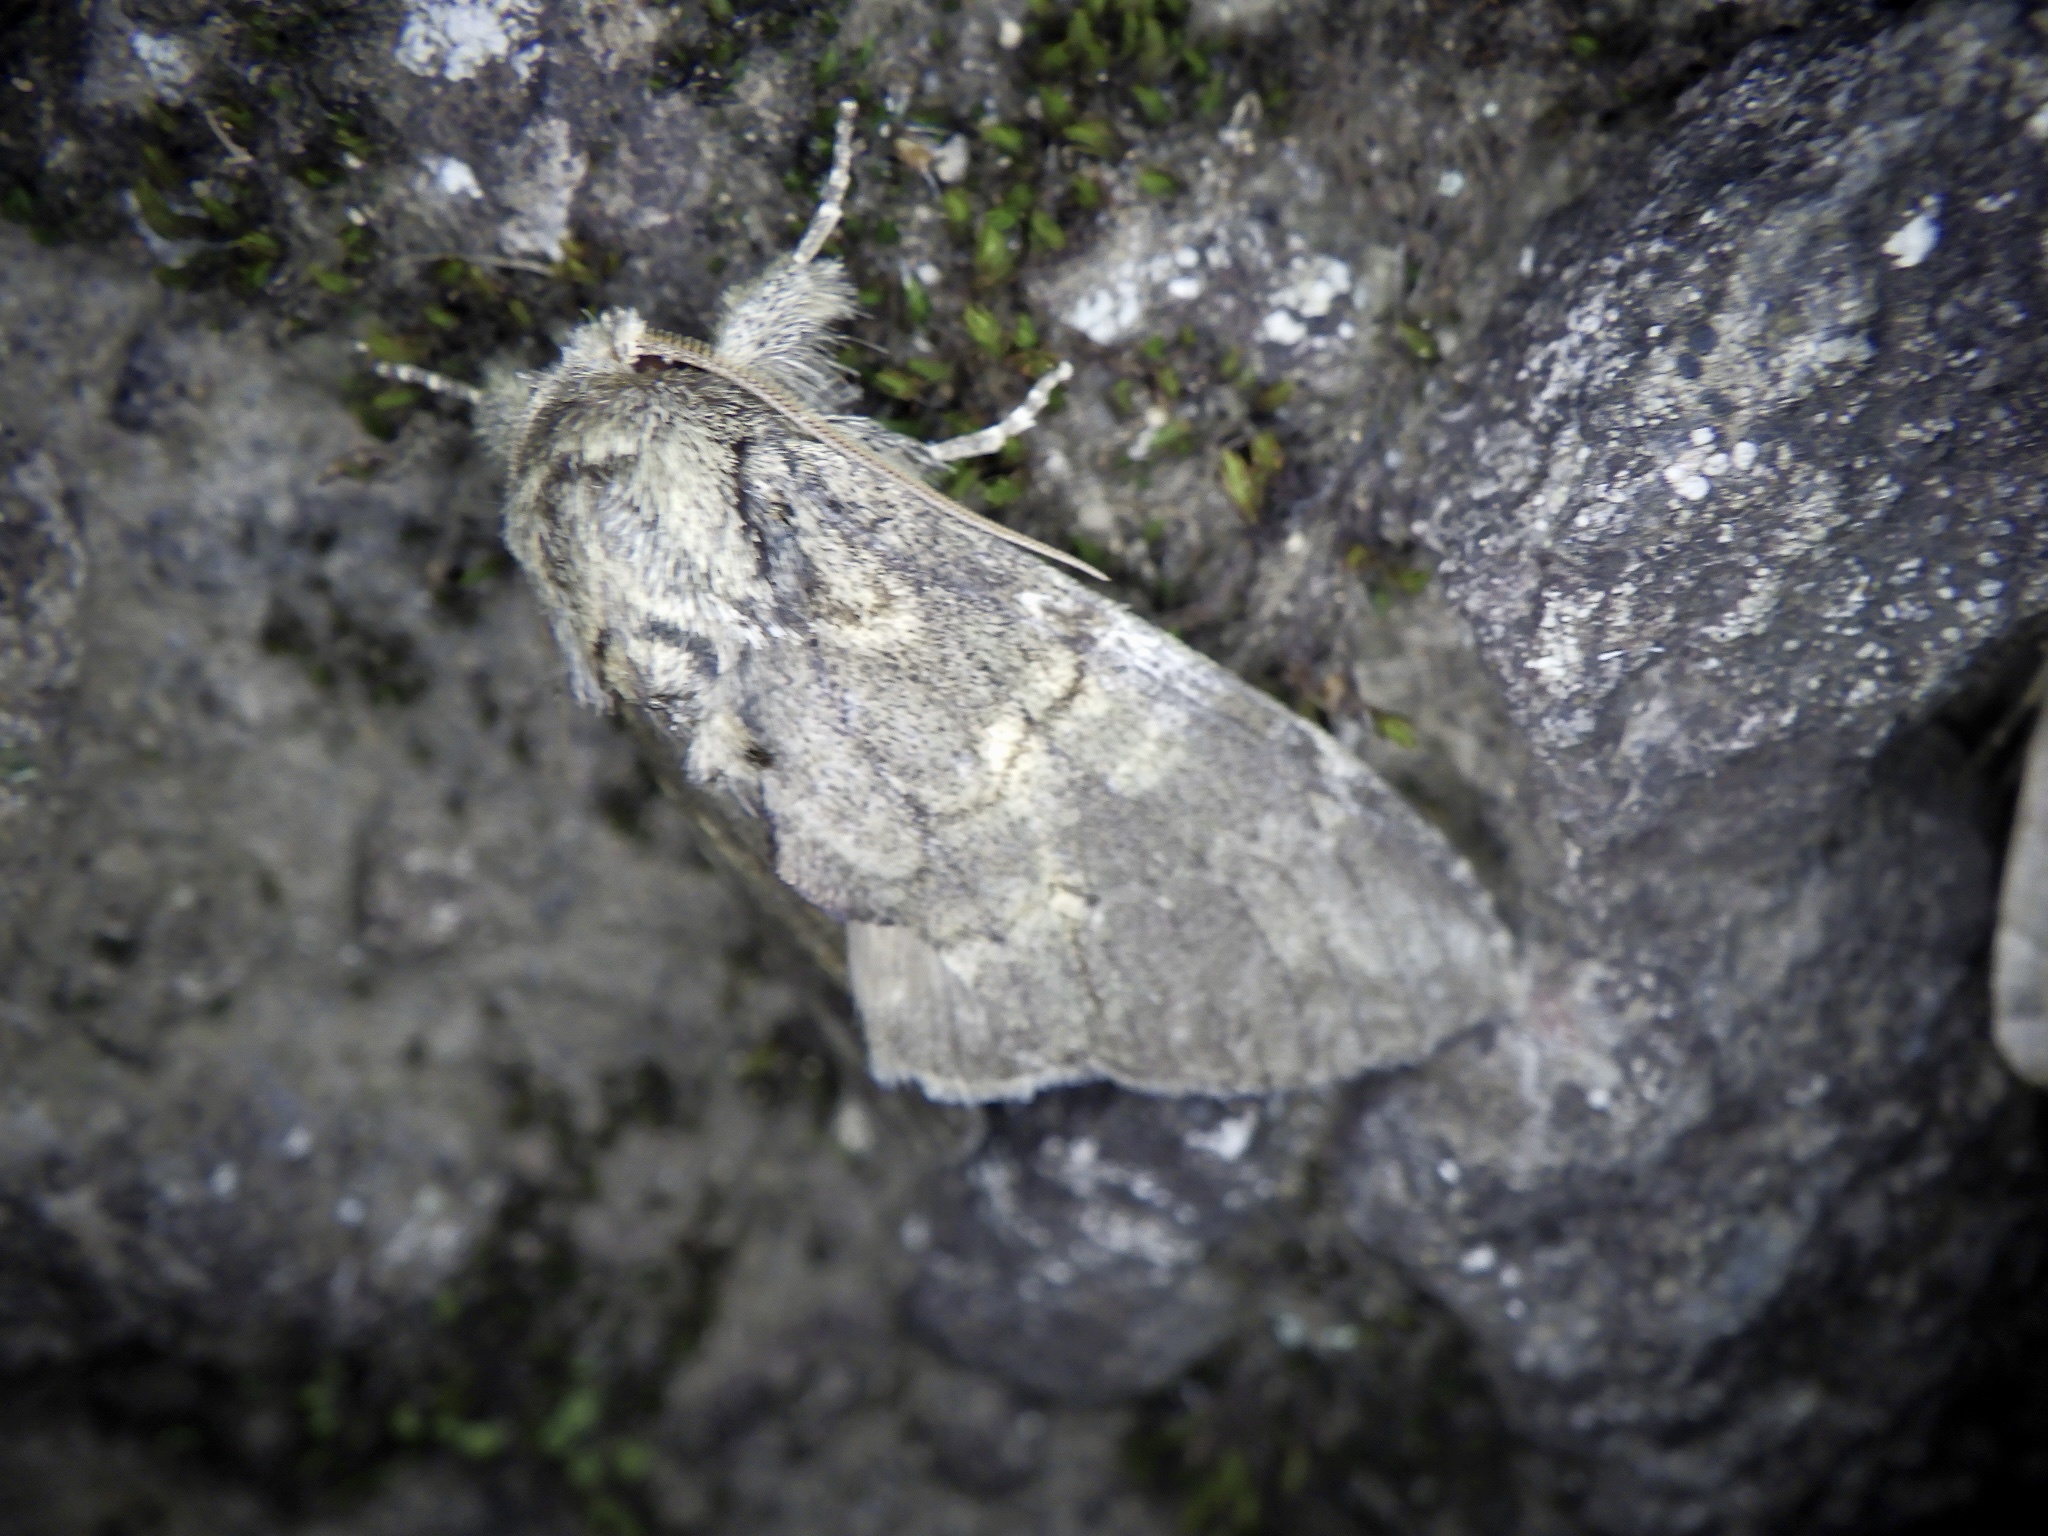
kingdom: Animalia
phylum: Arthropoda
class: Insecta
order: Lepidoptera
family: Notodontidae
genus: Peridea
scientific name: Peridea gigantea
